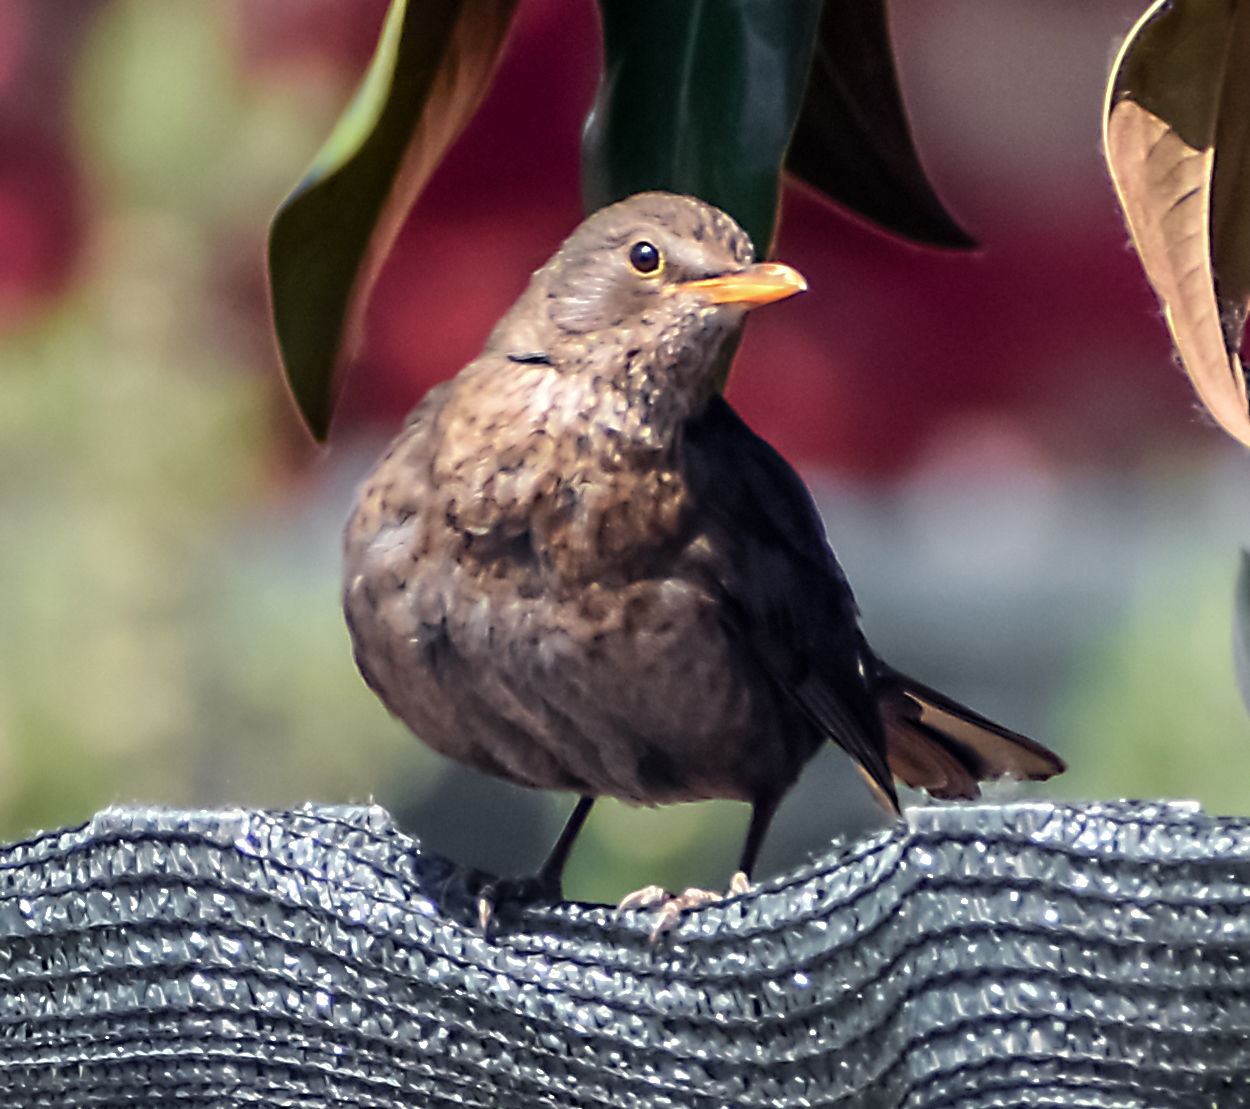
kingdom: Animalia
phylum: Chordata
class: Aves
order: Passeriformes
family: Turdidae
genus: Turdus
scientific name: Turdus merula
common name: Common blackbird
